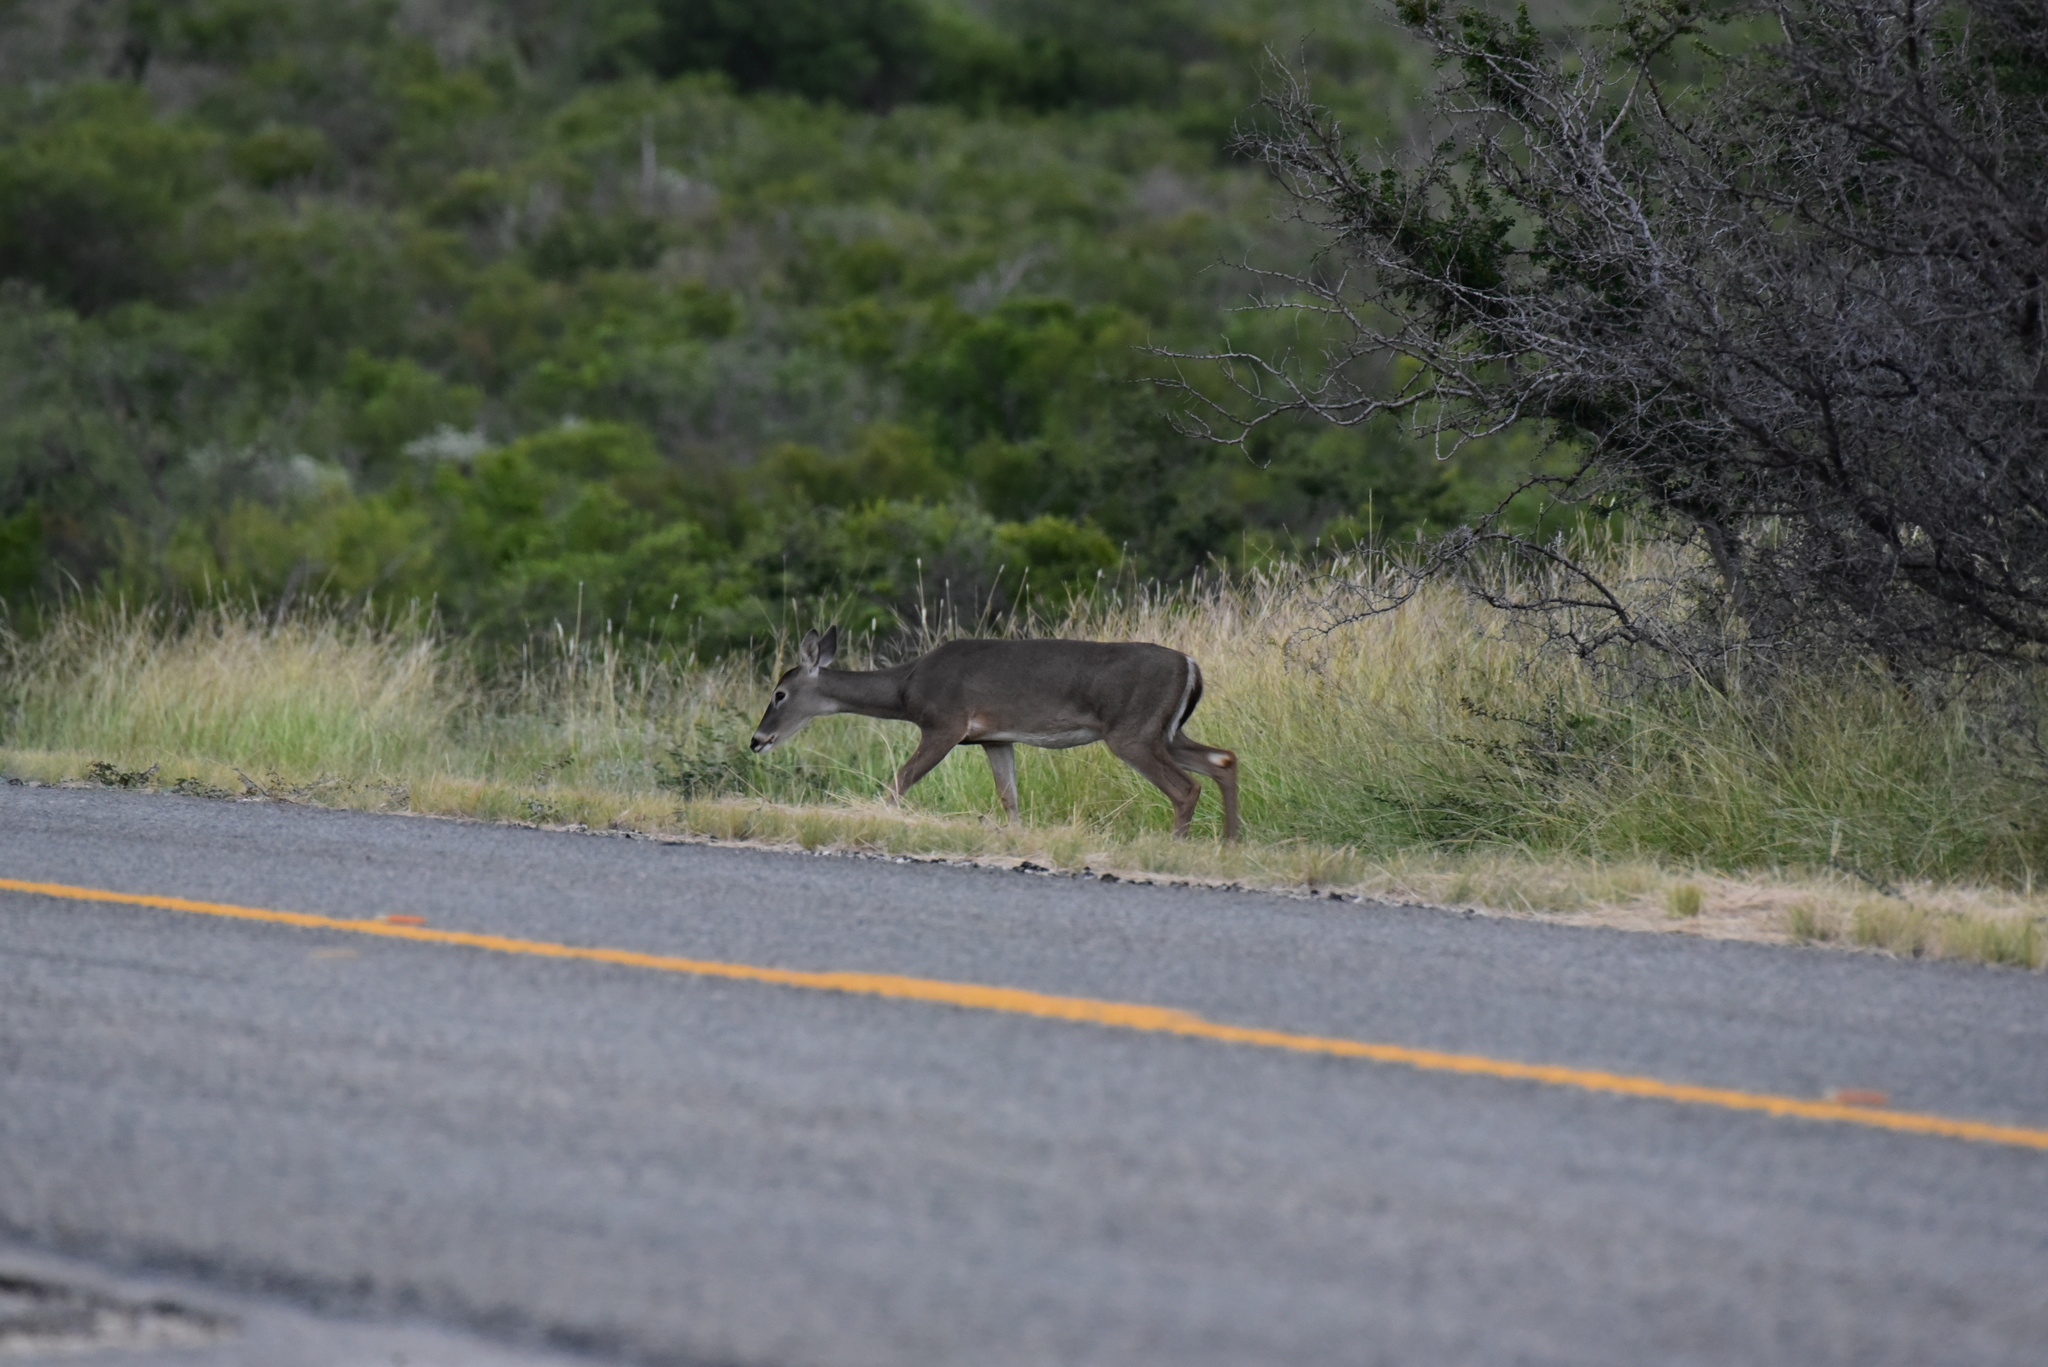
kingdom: Animalia
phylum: Chordata
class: Mammalia
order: Artiodactyla
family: Cervidae
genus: Odocoileus
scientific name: Odocoileus virginianus
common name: White-tailed deer
